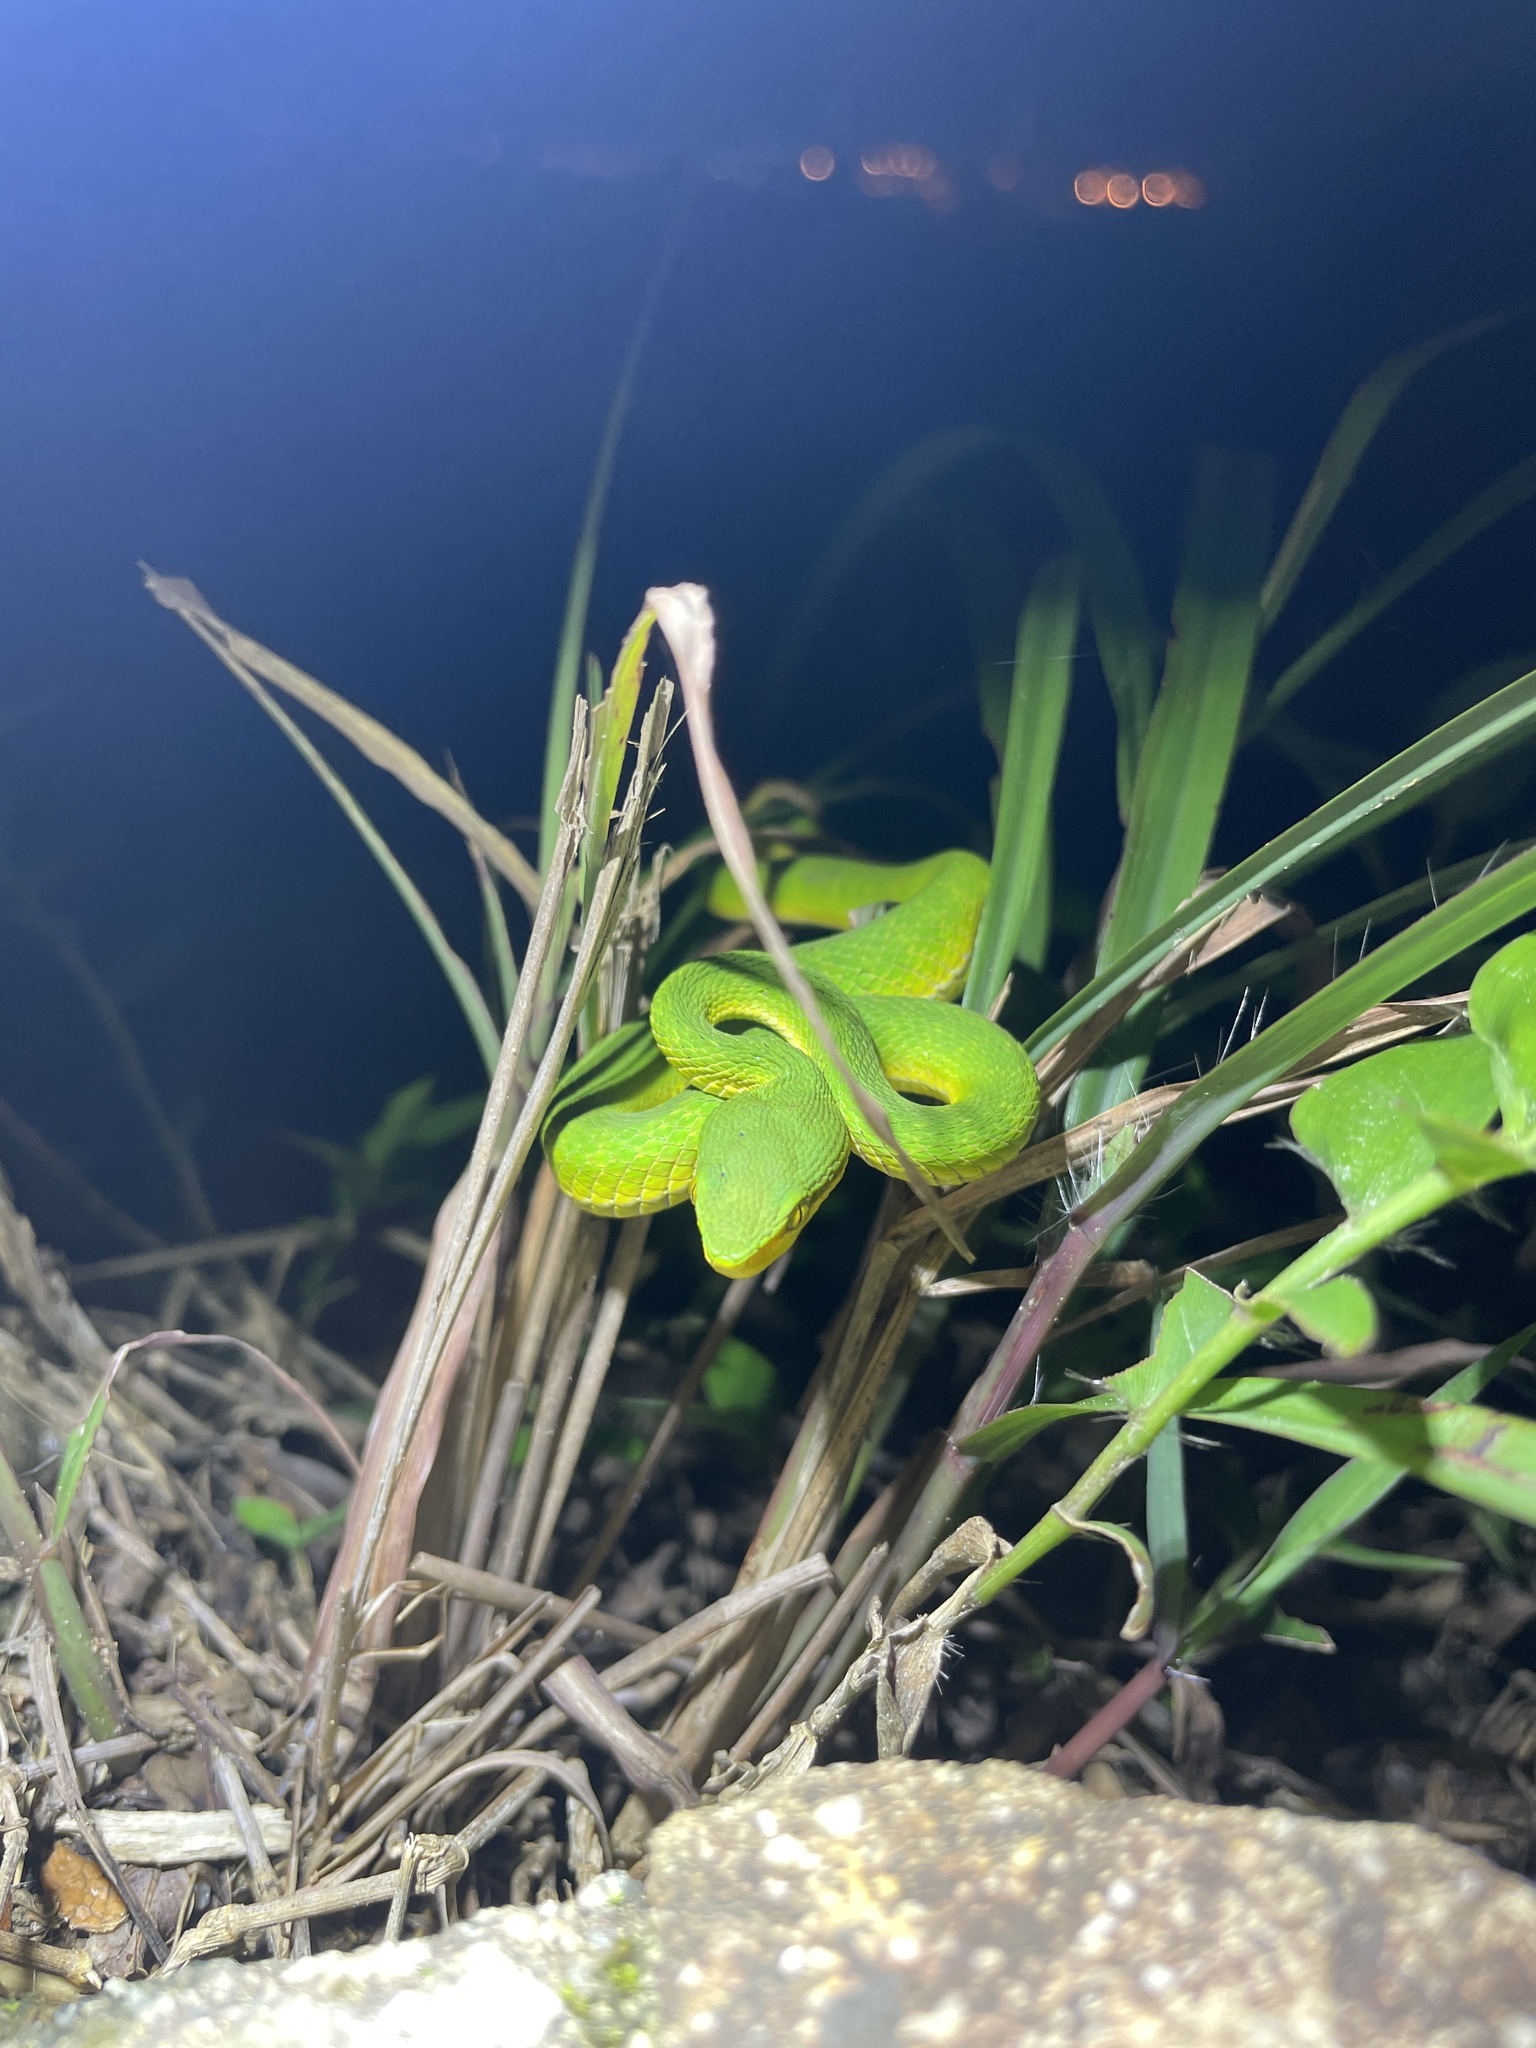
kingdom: Animalia
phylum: Chordata
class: Squamata
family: Viperidae
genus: Trimeresurus
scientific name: Trimeresurus albolabris
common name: White-lipped pitviper
